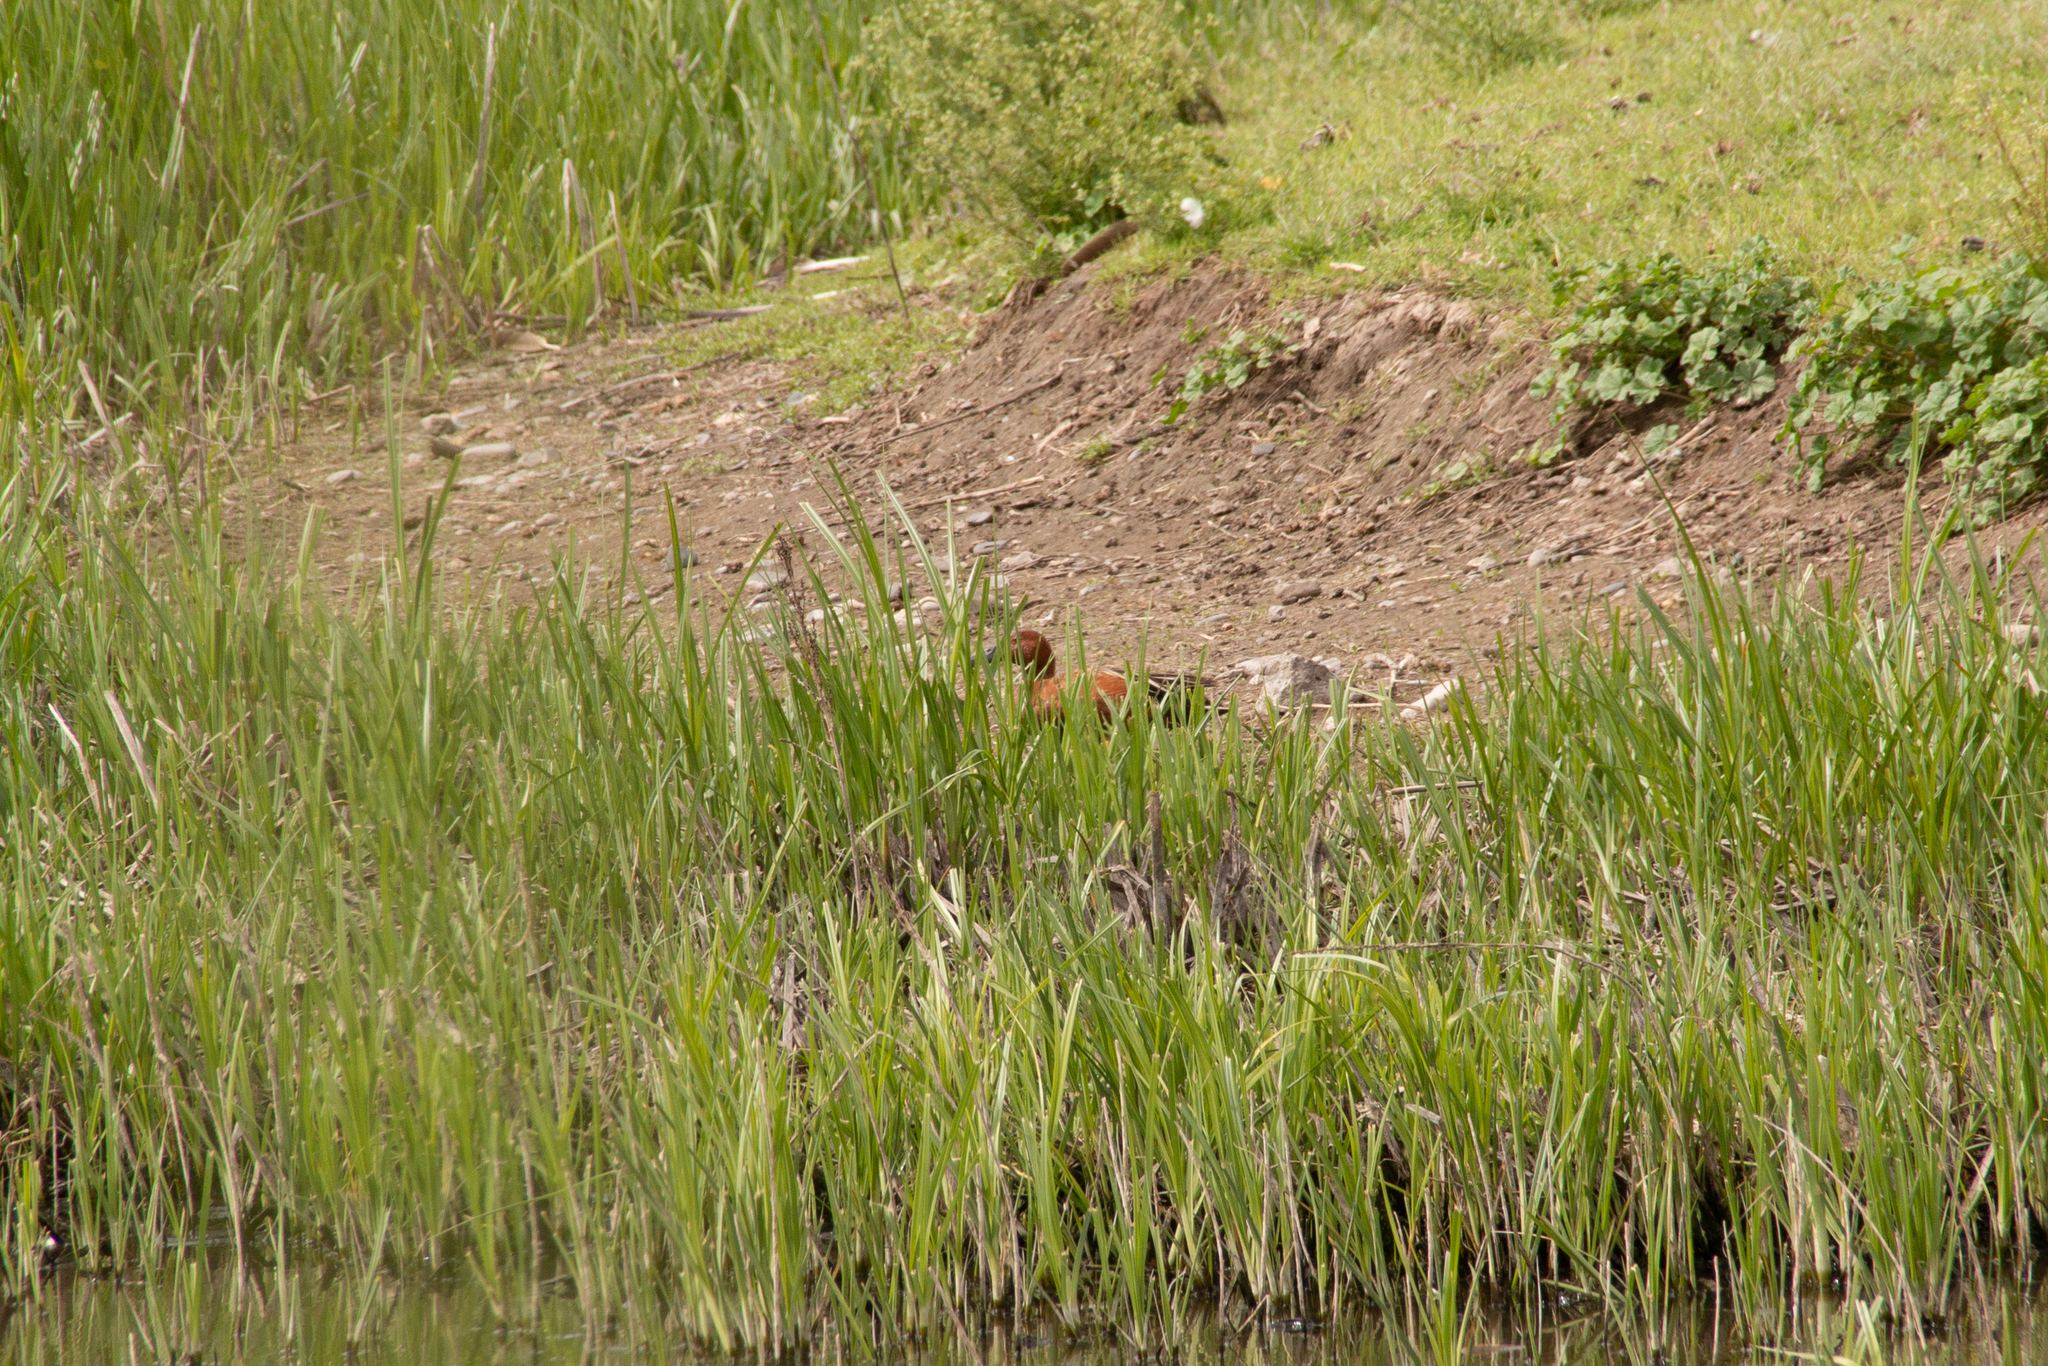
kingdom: Animalia
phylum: Chordata
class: Aves
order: Anseriformes
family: Anatidae
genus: Spatula
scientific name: Spatula cyanoptera
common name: Cinnamon teal
